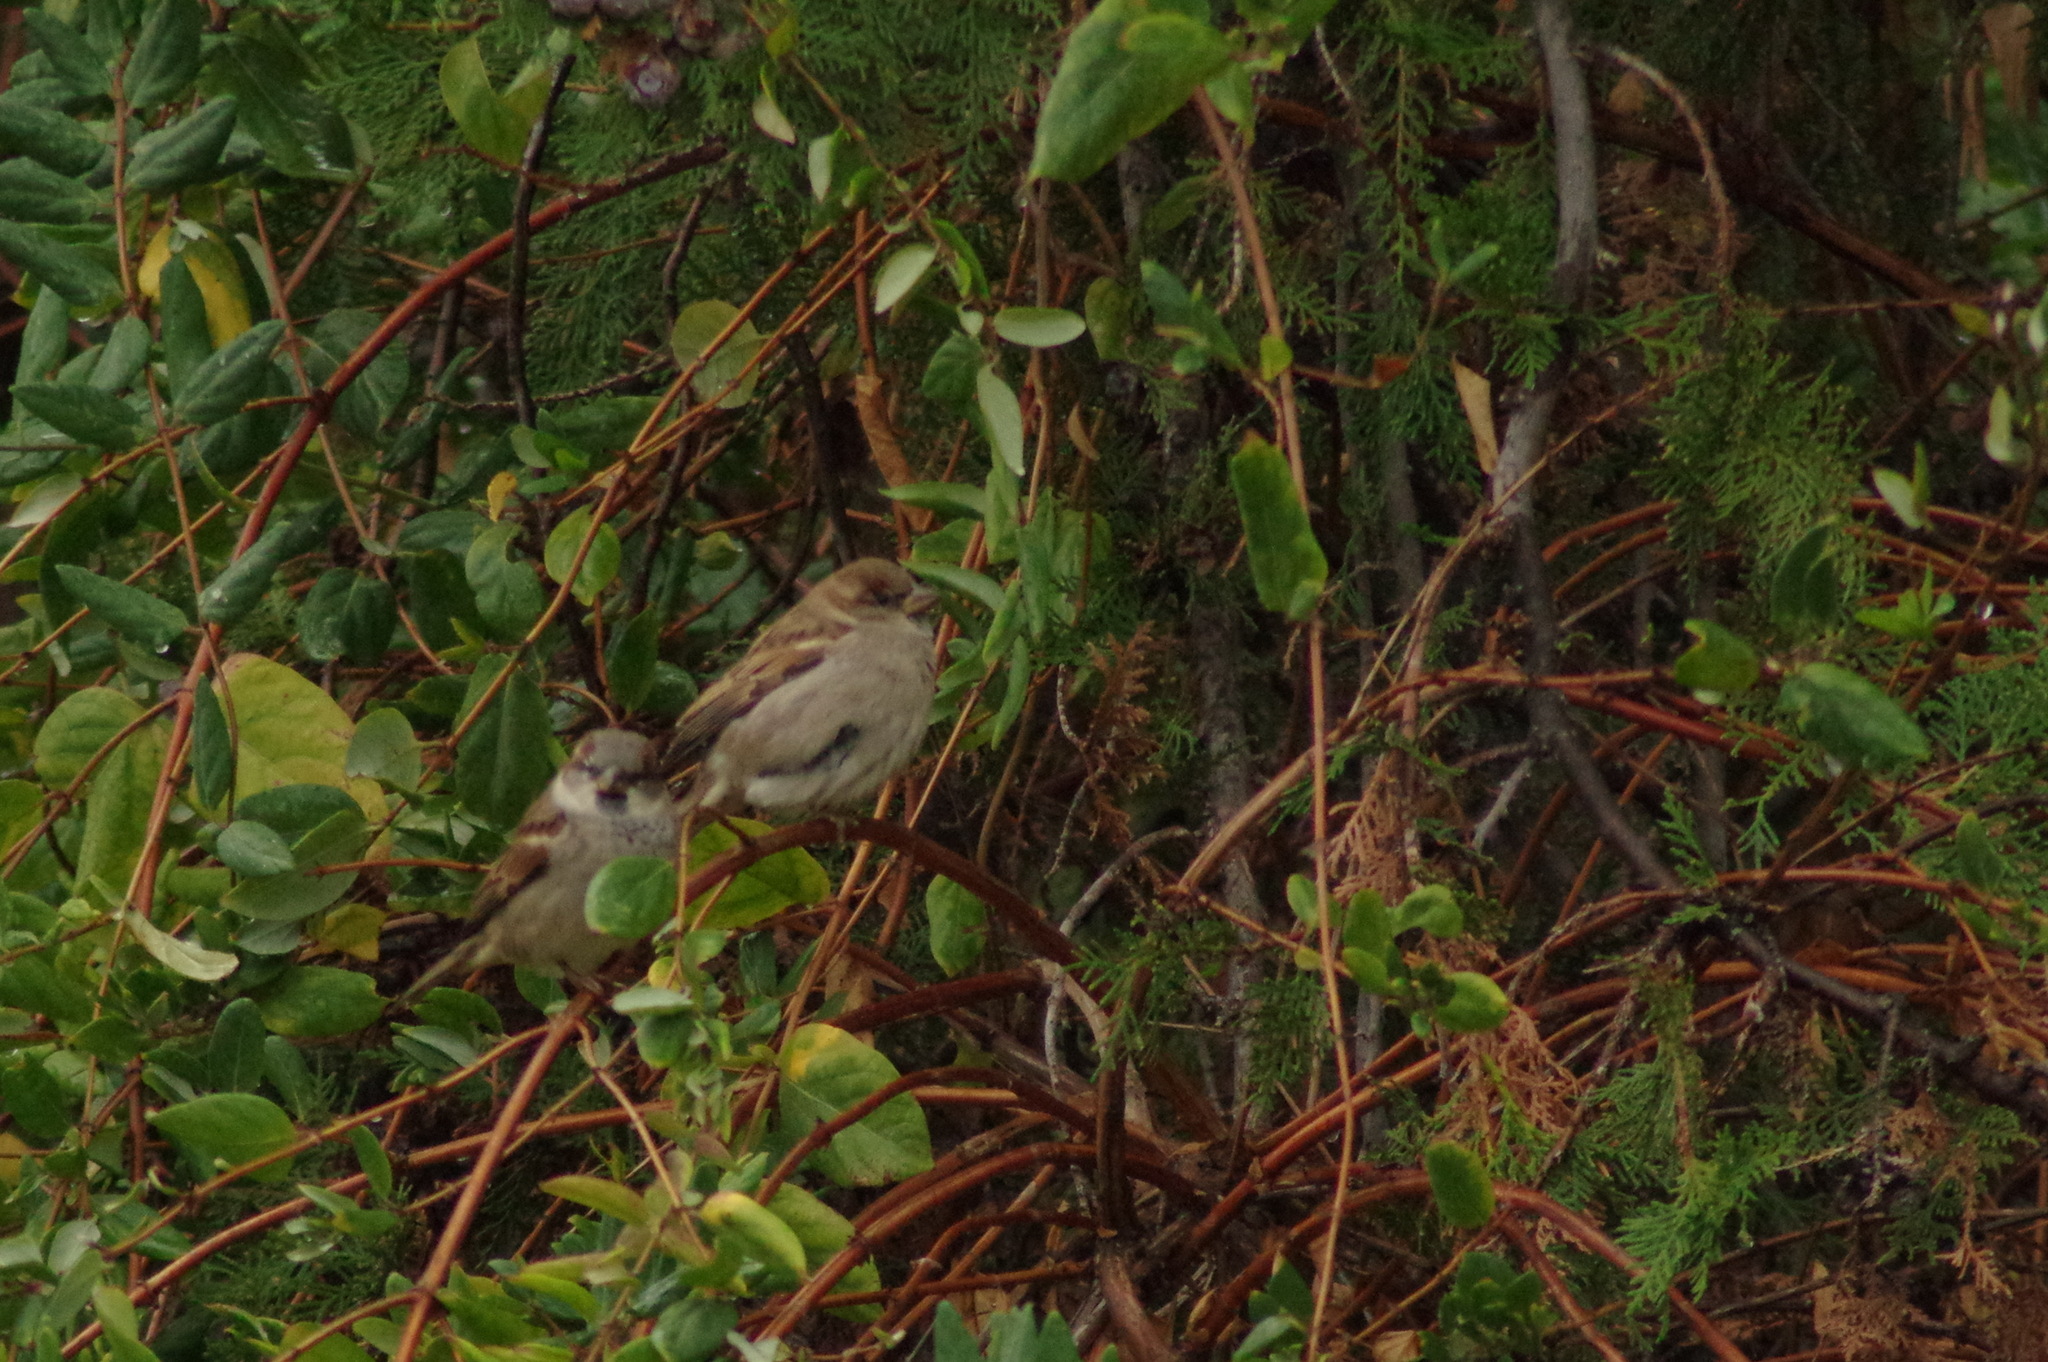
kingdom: Animalia
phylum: Chordata
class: Aves
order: Passeriformes
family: Passeridae
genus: Passer
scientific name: Passer domesticus
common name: House sparrow
